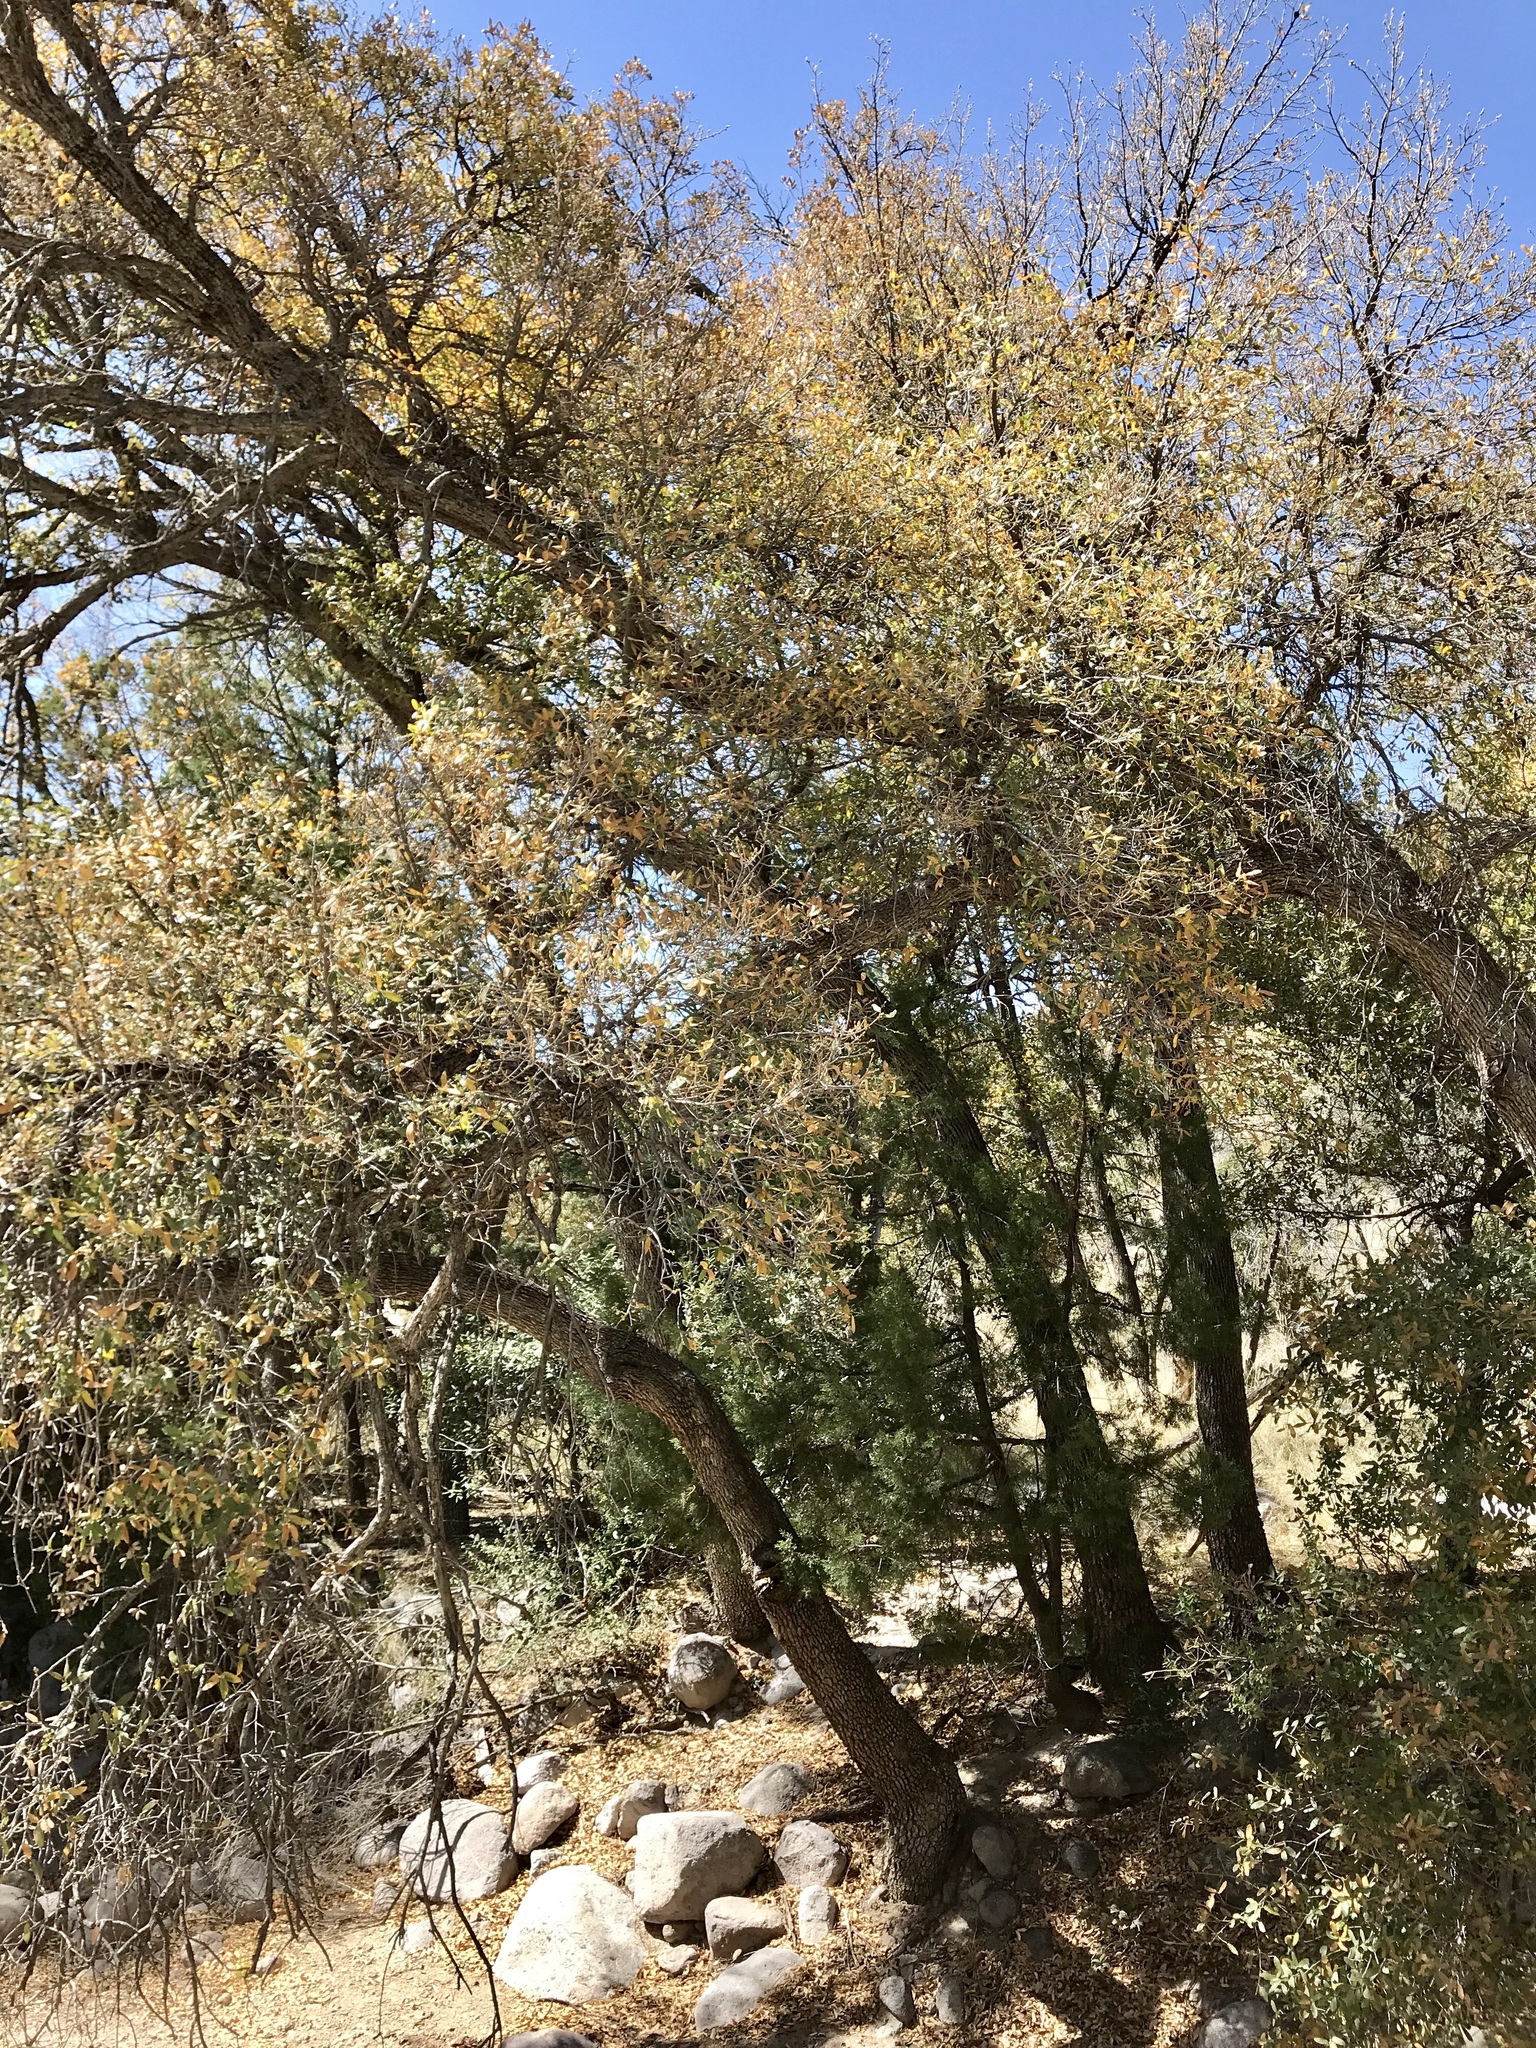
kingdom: Plantae
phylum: Tracheophyta
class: Magnoliopsida
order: Fagales
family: Fagaceae
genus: Quercus
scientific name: Quercus oblongifolia
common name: Mexican blue oak
